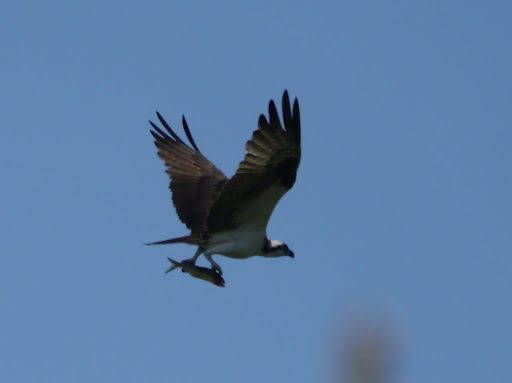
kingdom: Animalia
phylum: Chordata
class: Aves
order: Accipitriformes
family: Pandionidae
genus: Pandion
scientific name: Pandion haliaetus
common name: Osprey
